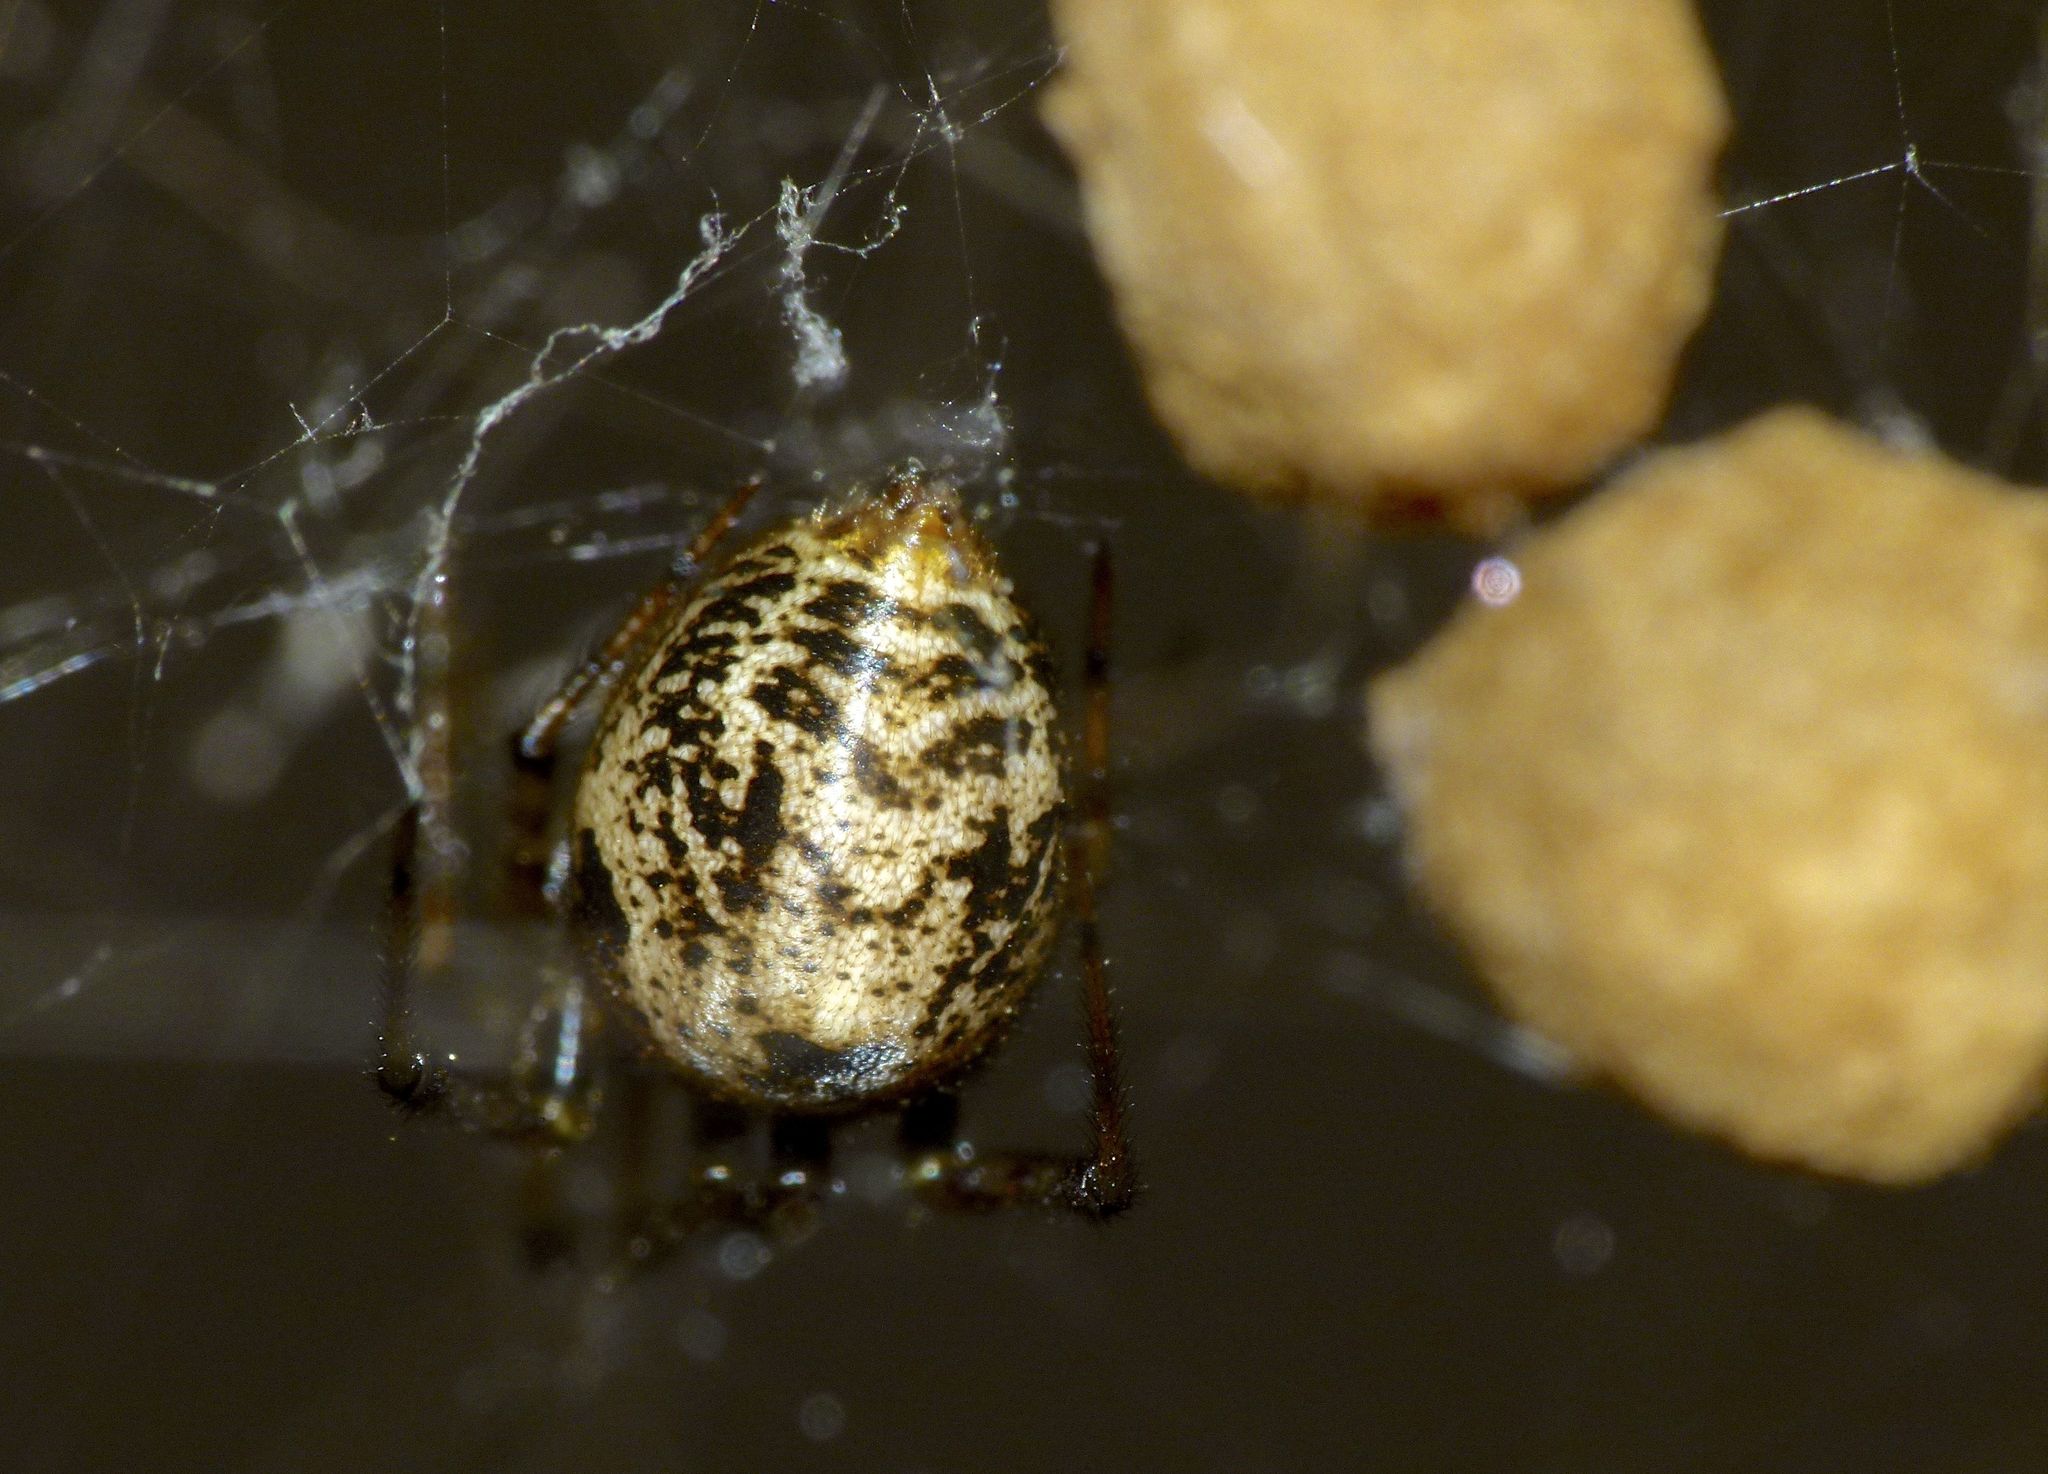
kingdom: Animalia
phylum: Arthropoda
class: Arachnida
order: Araneae
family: Theridiidae
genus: Parasteatoda
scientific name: Parasteatoda tepidariorum
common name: Common house spider
